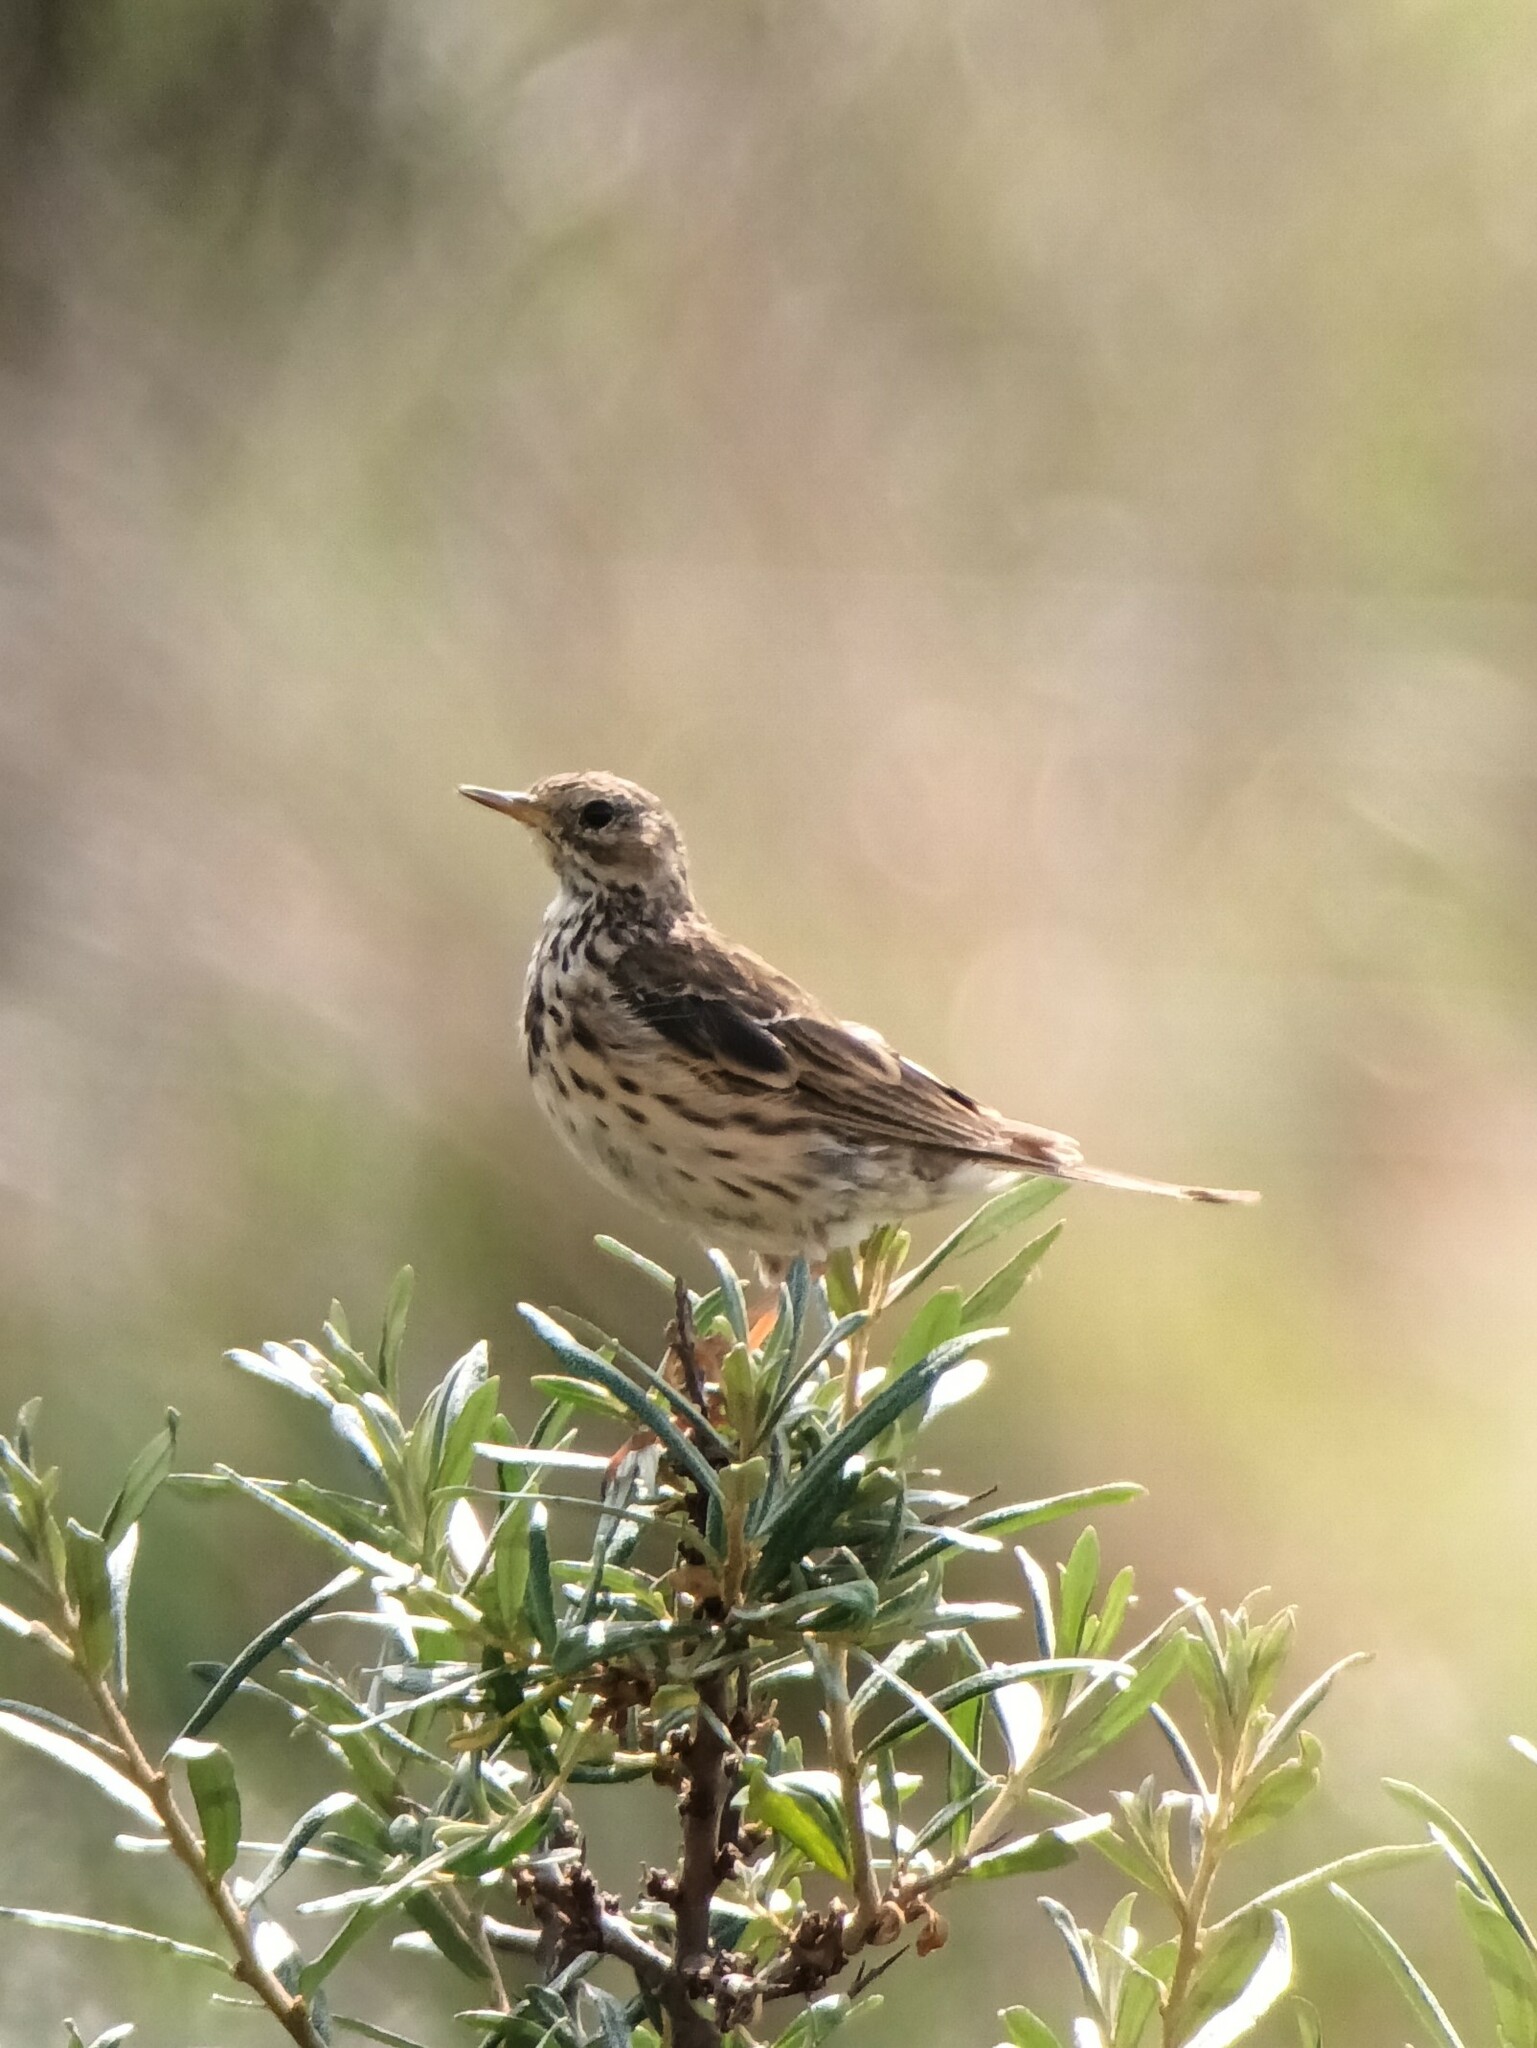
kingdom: Animalia
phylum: Chordata
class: Aves
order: Passeriformes
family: Motacillidae
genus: Anthus
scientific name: Anthus pratensis
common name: Meadow pipit
